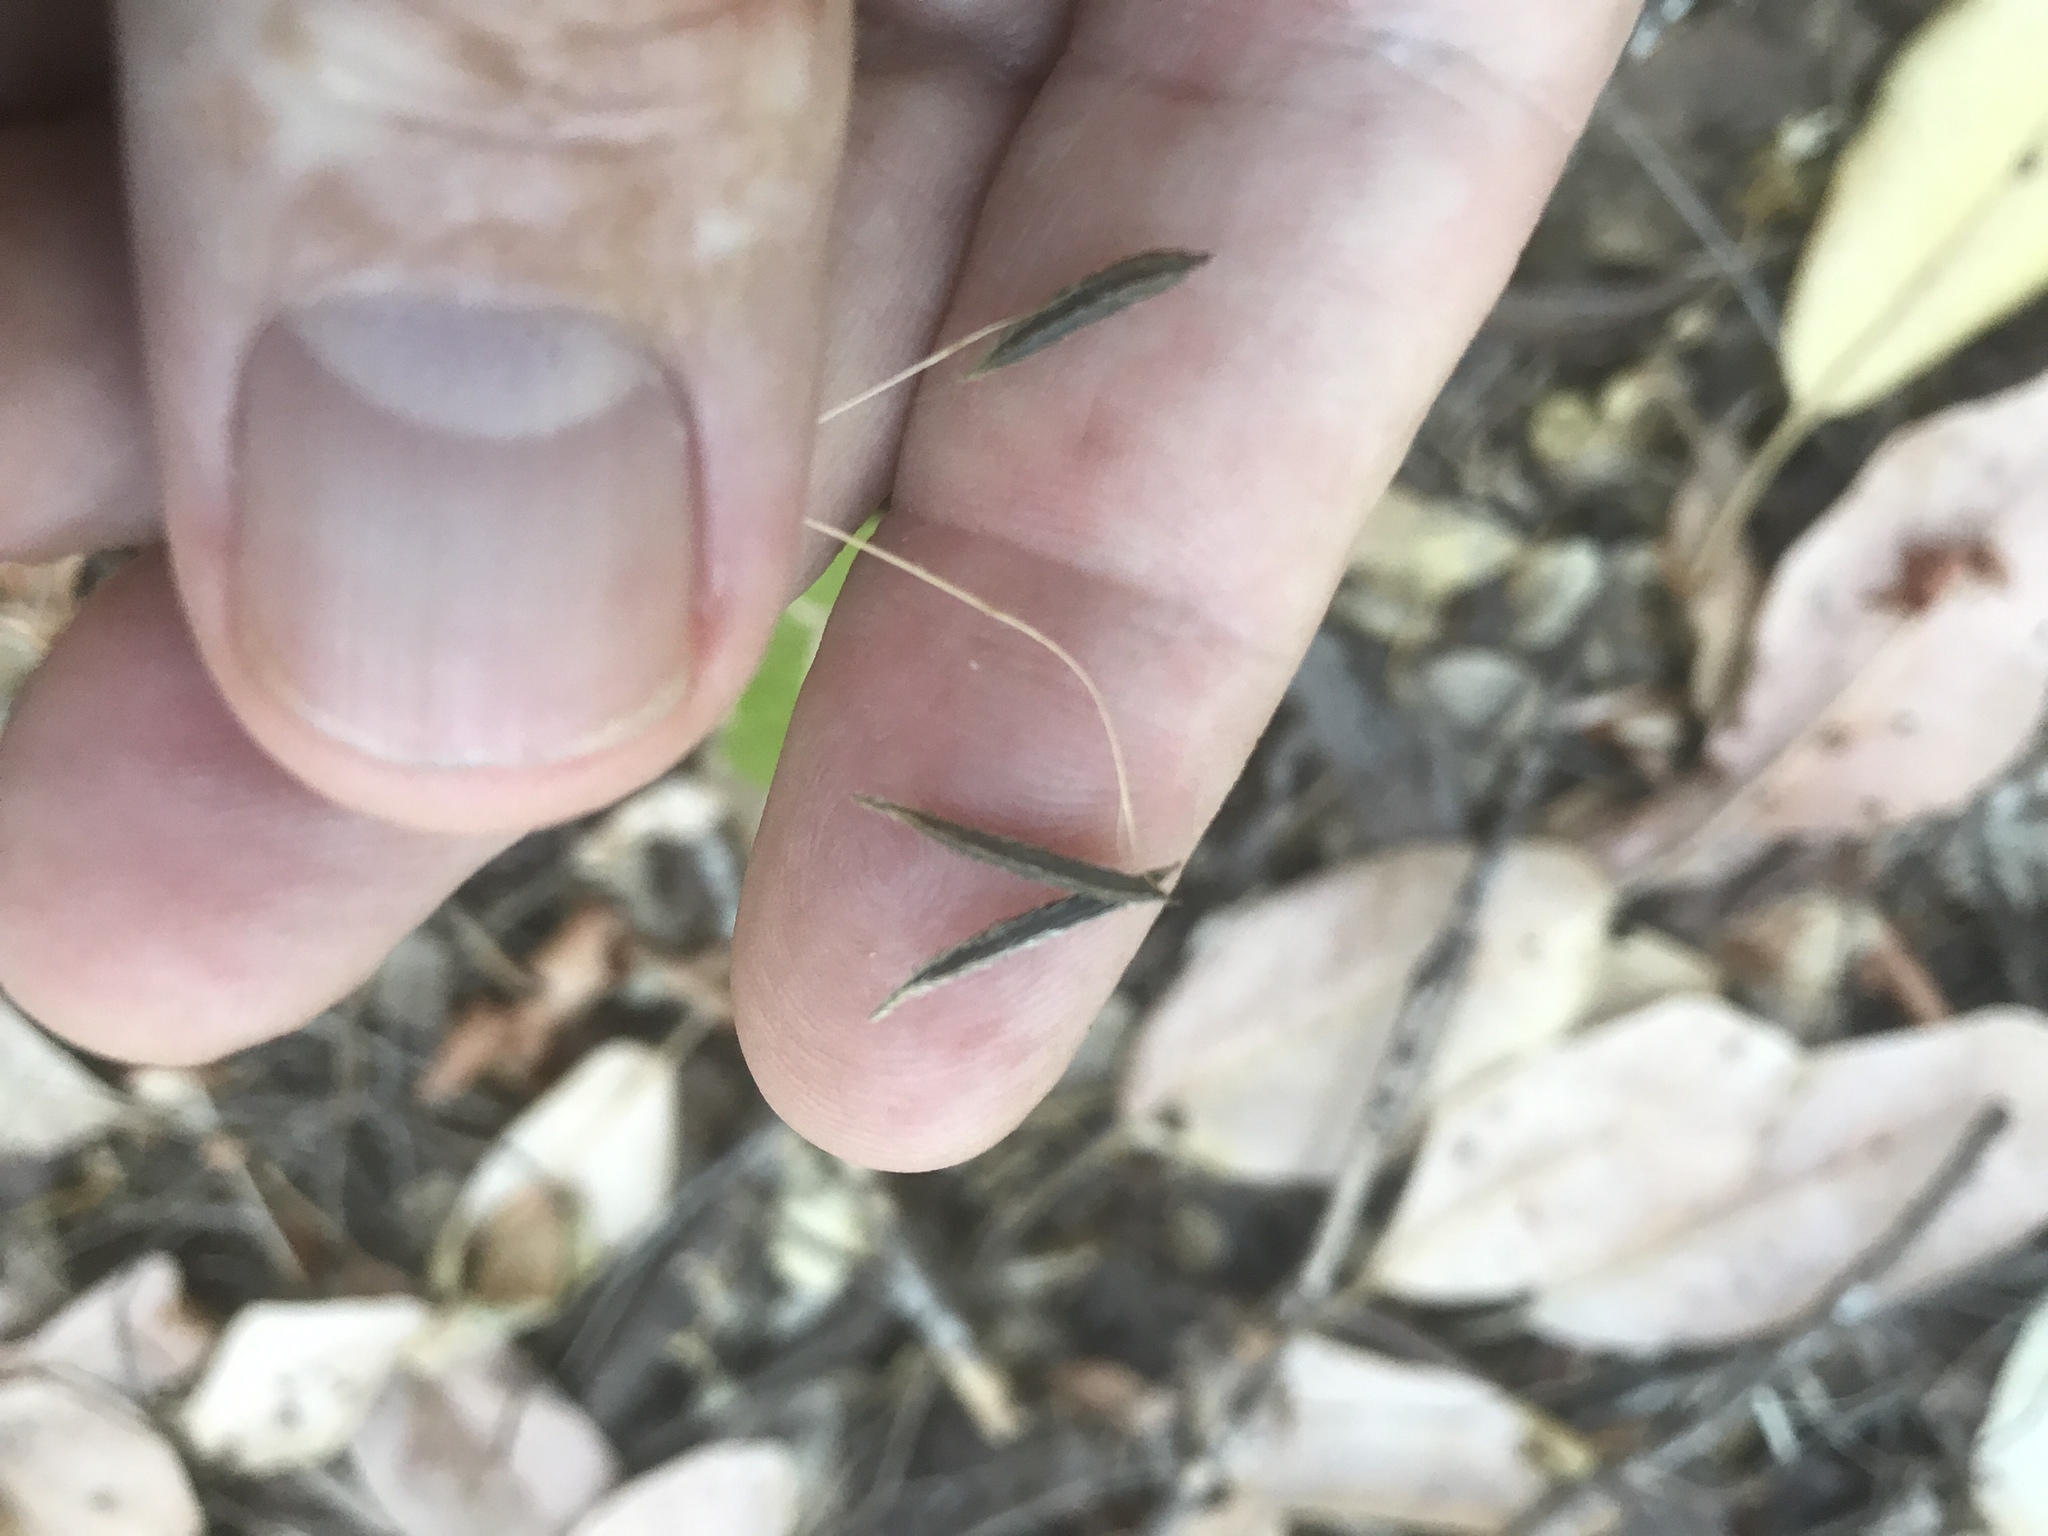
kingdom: Plantae
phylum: Tracheophyta
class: Magnoliopsida
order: Apiales
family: Apiaceae
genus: Osmorhiza
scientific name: Osmorhiza berteroi
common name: Mountain sweet cicely
